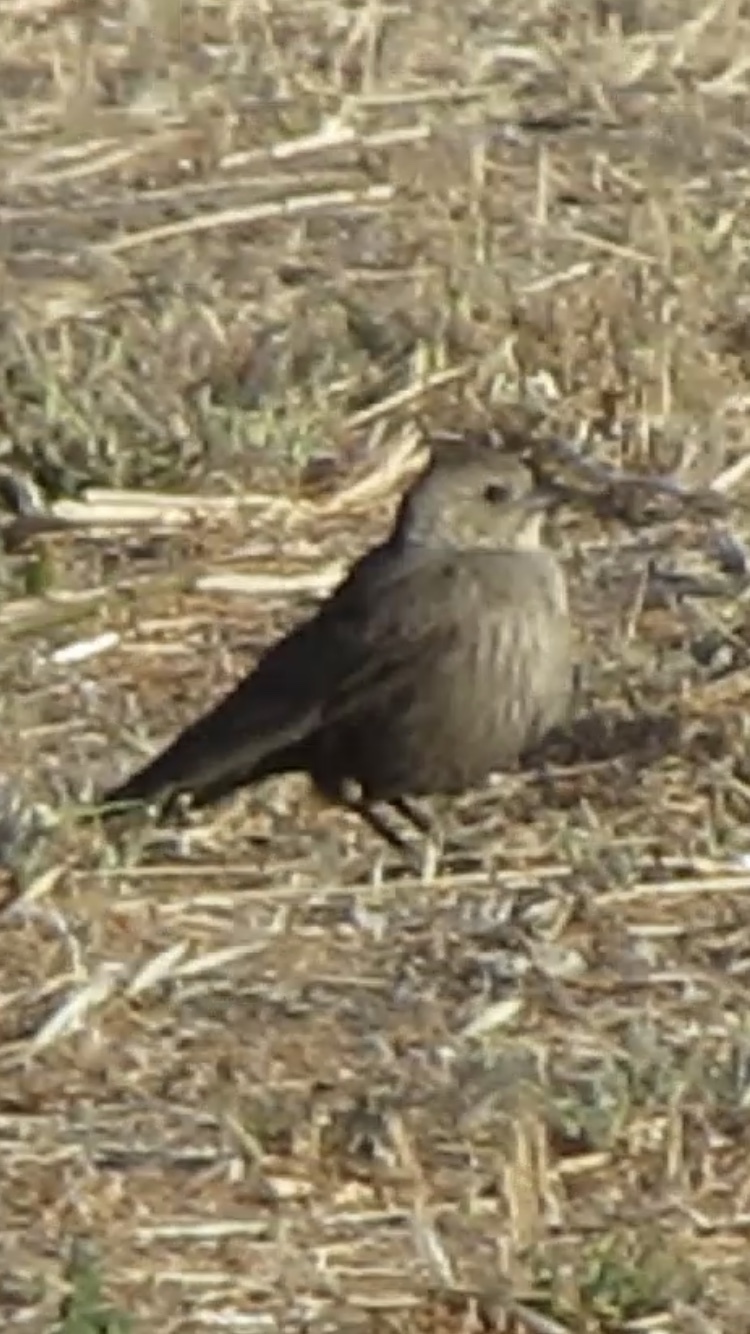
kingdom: Animalia
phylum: Chordata
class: Aves
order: Passeriformes
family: Icteridae
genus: Molothrus
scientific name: Molothrus ater
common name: Brown-headed cowbird
